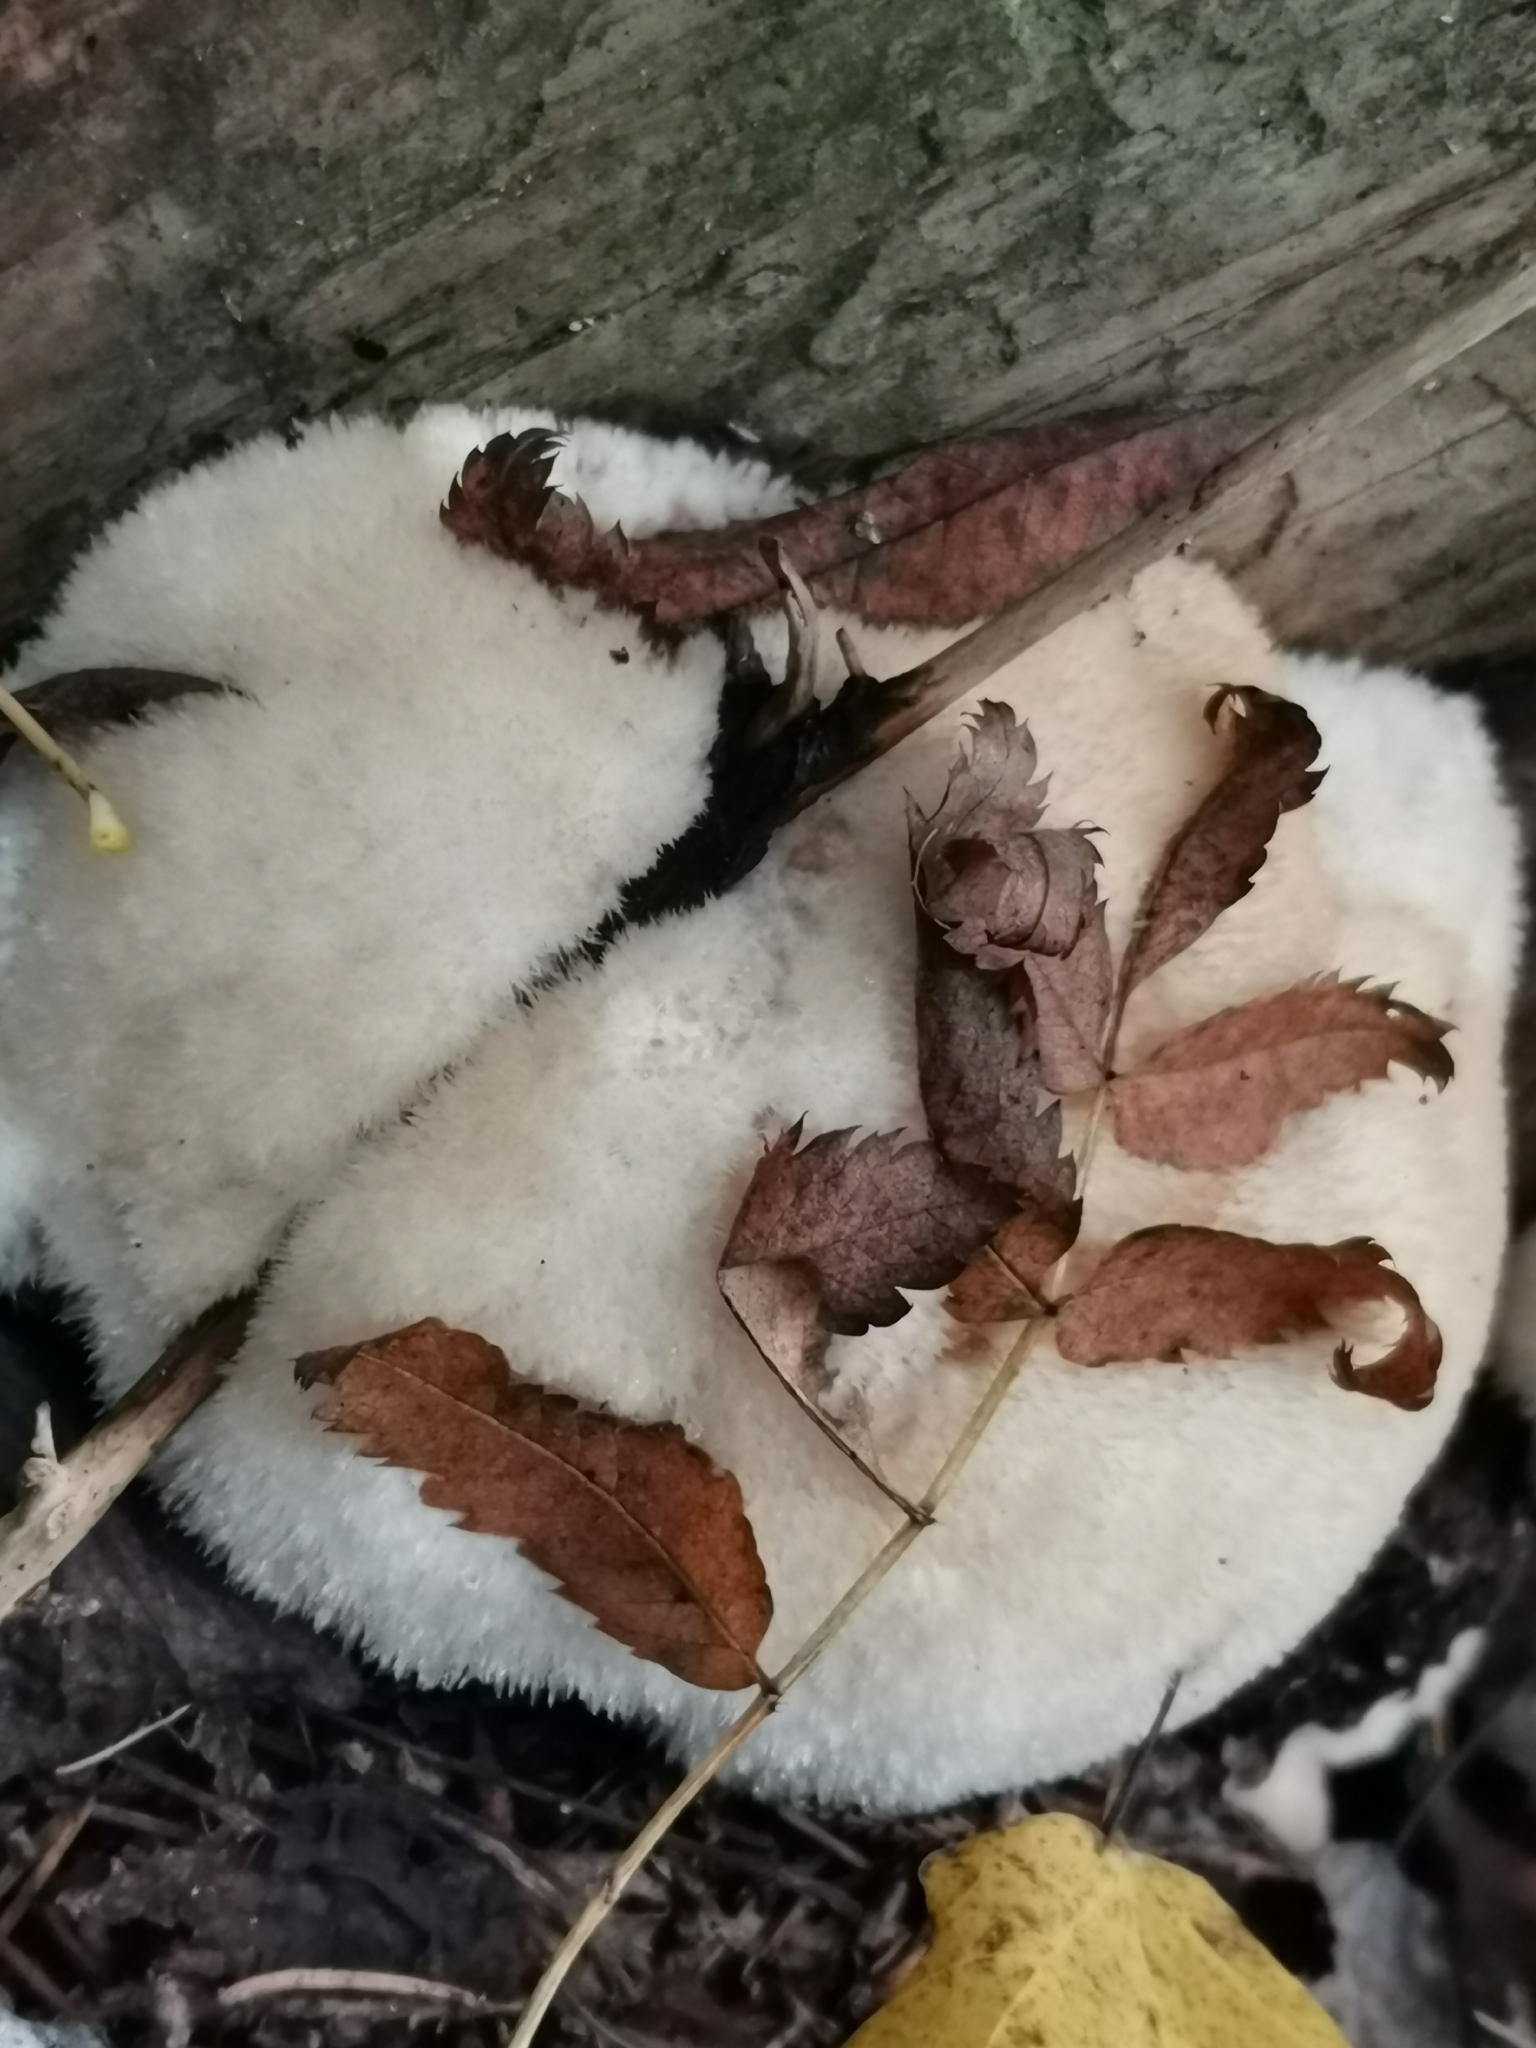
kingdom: Fungi
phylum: Basidiomycota
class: Agaricomycetes
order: Polyporales
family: Dacryobolaceae
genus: Postia
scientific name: Postia ptychogaster
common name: Powderpuff bracket
